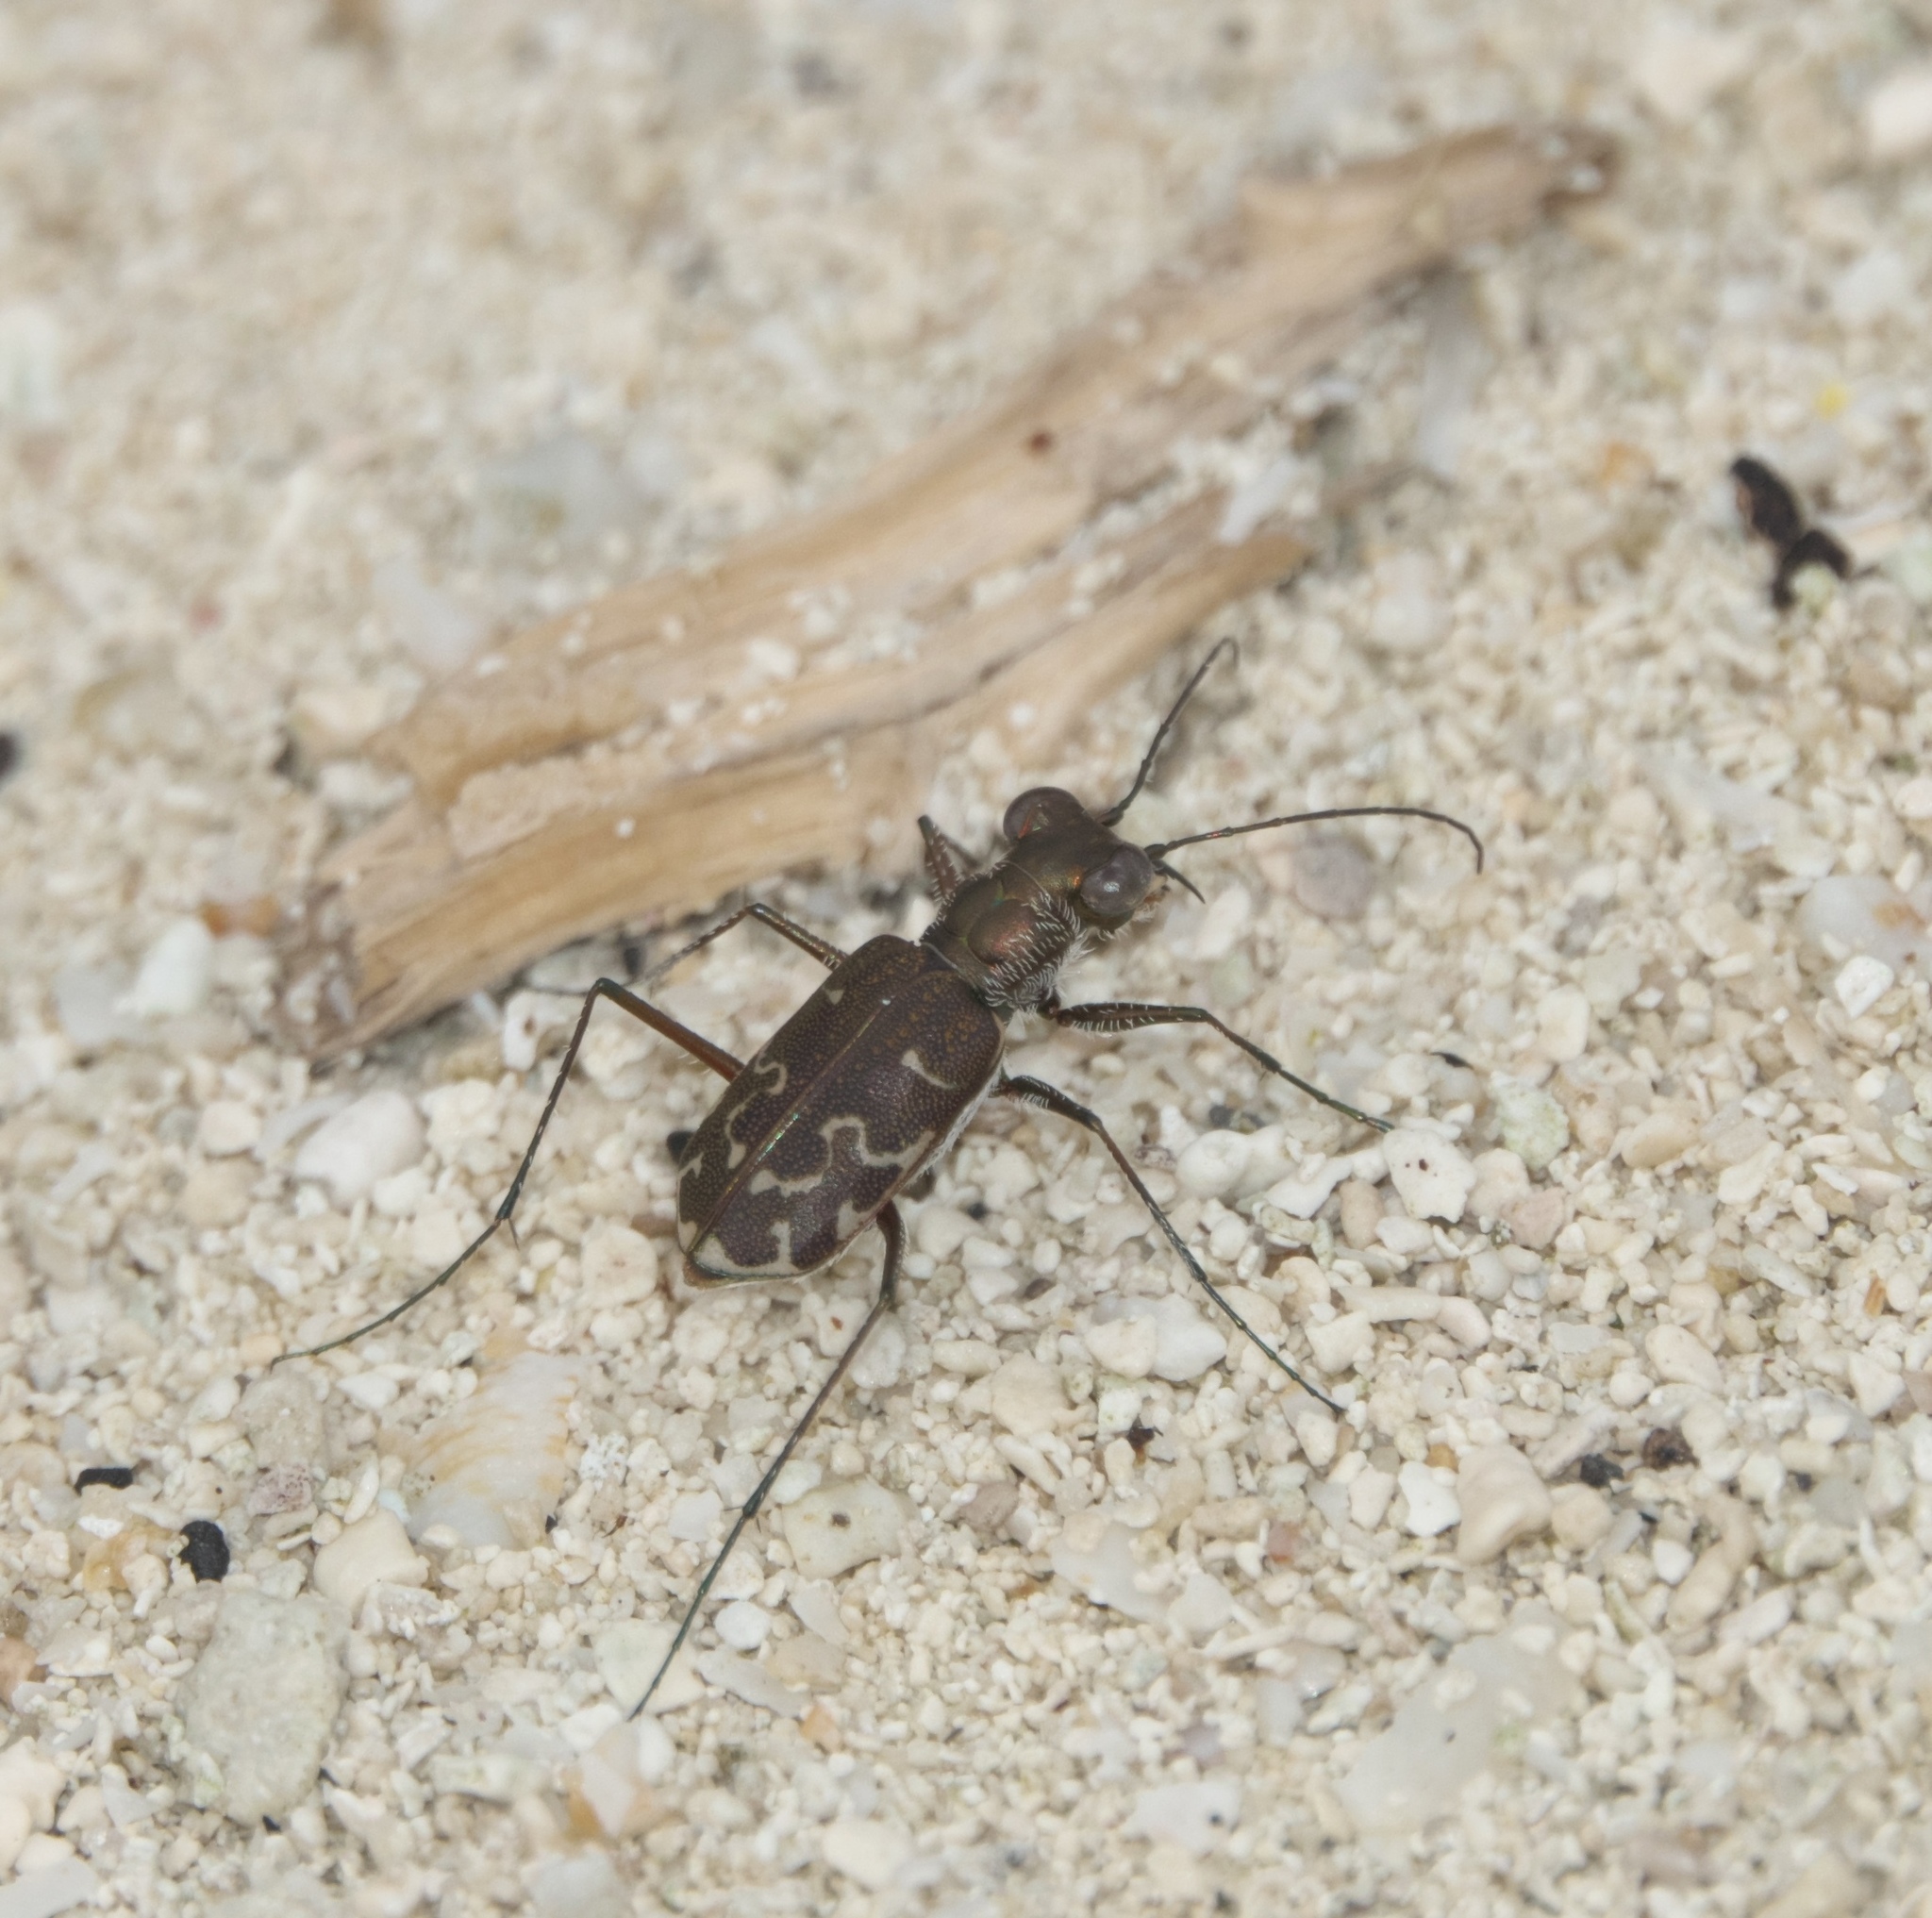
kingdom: Animalia
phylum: Arthropoda
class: Insecta
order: Coleoptera
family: Carabidae
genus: Cicindela
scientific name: Cicindela trifasciata
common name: Mudflat tiger beetle
